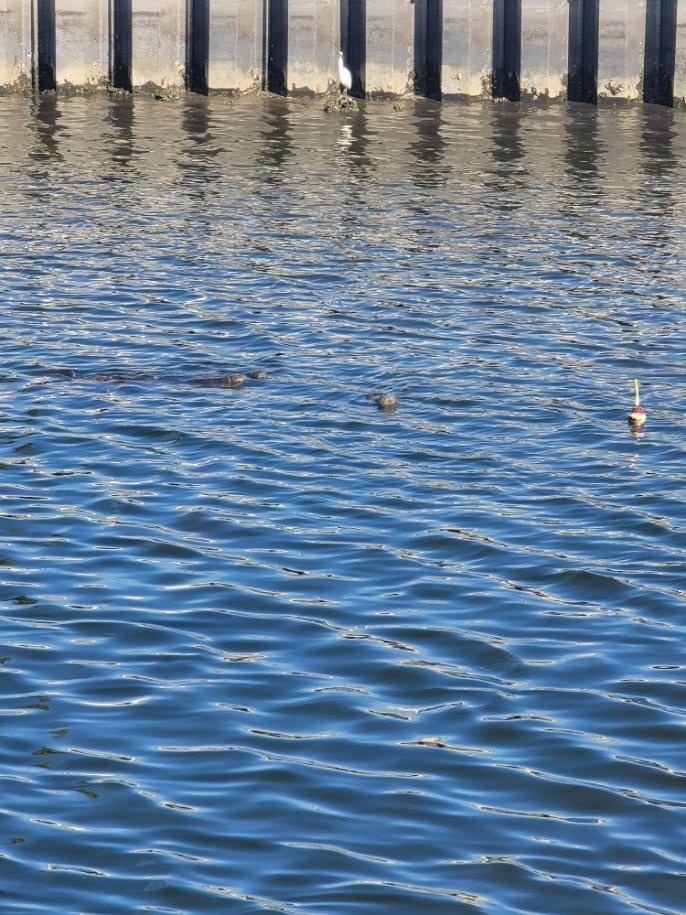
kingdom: Animalia
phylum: Chordata
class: Mammalia
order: Sirenia
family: Trichechidae
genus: Trichechus
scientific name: Trichechus manatus
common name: West indian manatee
